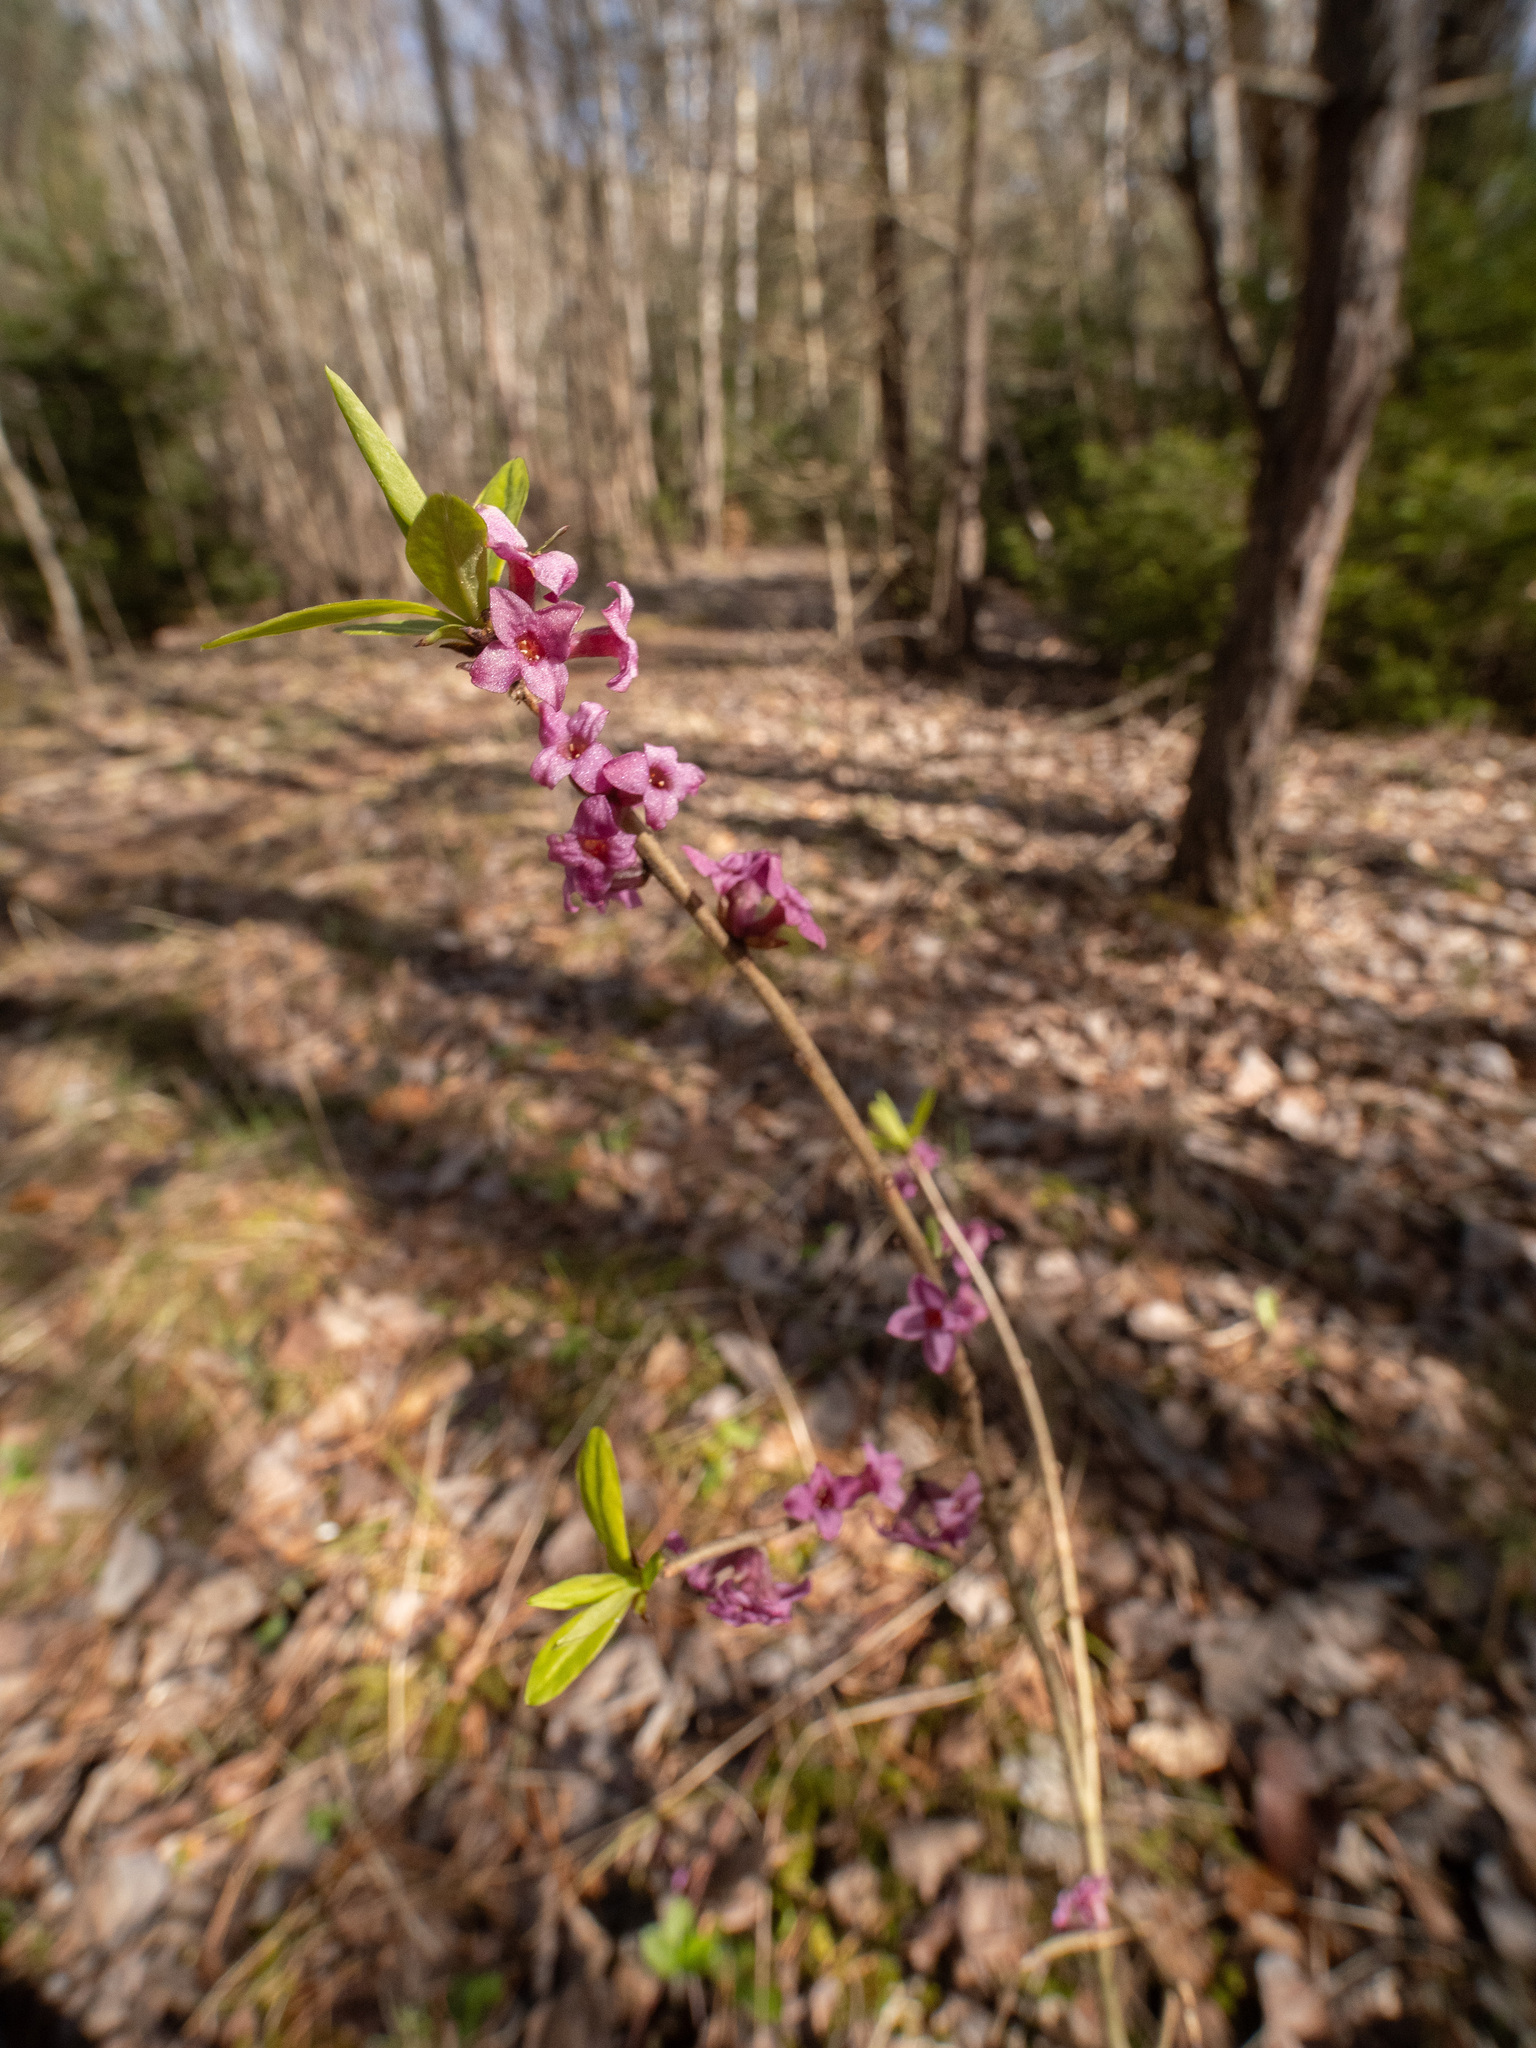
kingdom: Plantae
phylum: Tracheophyta
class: Magnoliopsida
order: Malvales
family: Thymelaeaceae
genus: Daphne
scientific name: Daphne mezereum
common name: Mezereon
